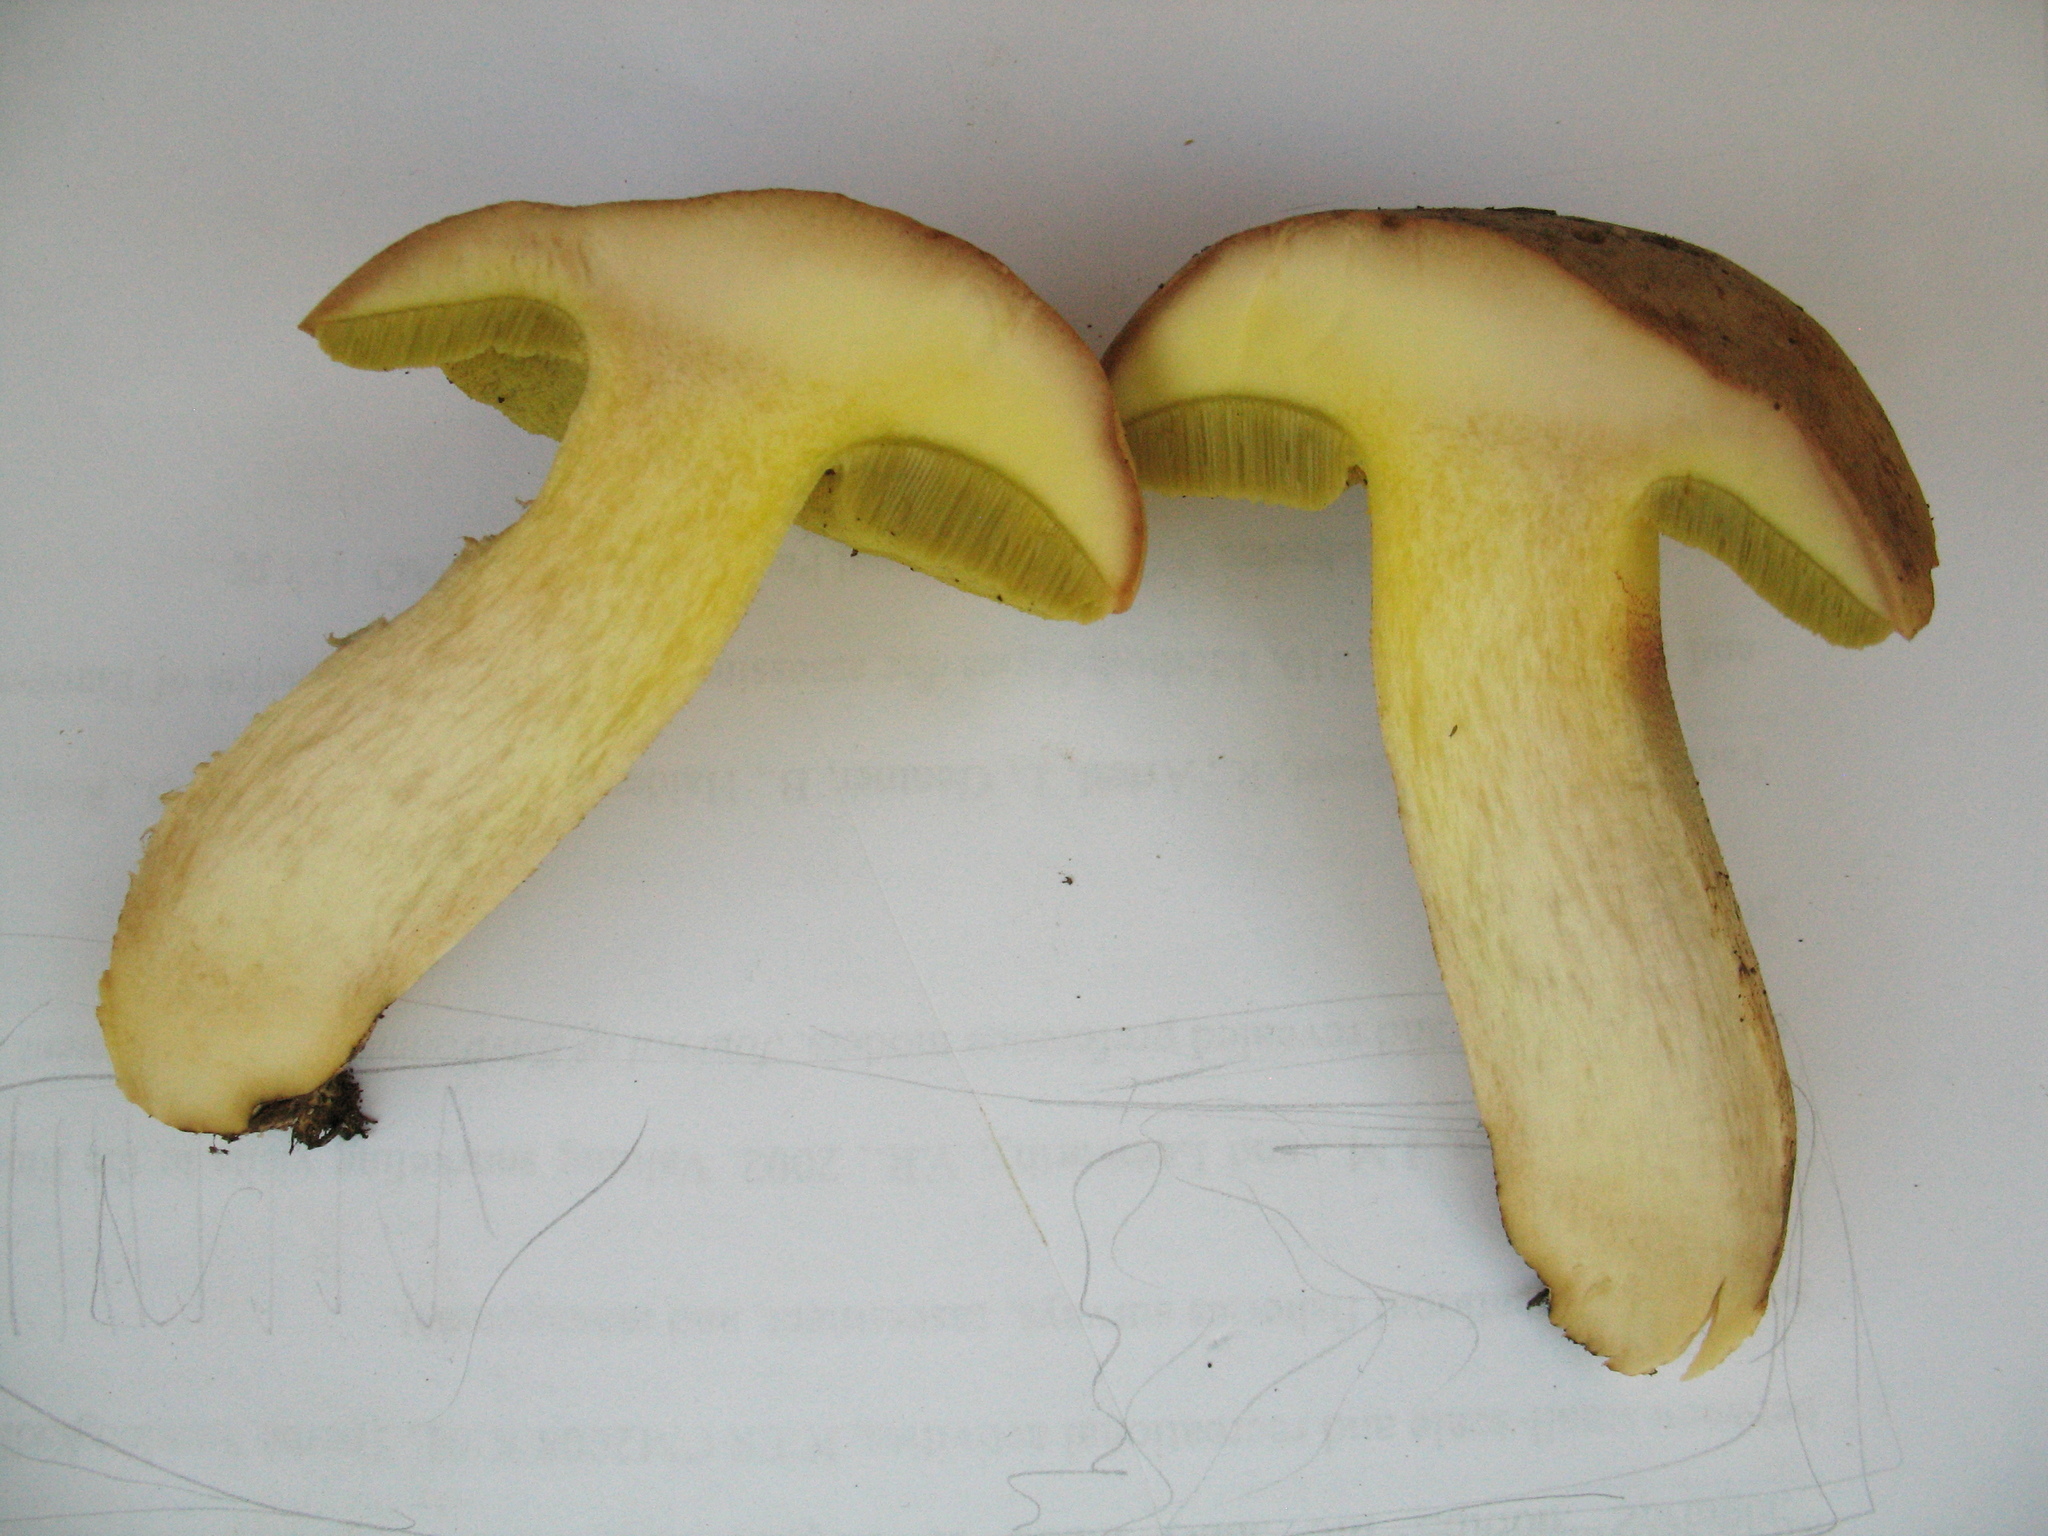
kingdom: Fungi
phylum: Basidiomycota
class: Agaricomycetes
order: Boletales
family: Boletaceae
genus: Hemileccinum
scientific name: Hemileccinum impolitum
